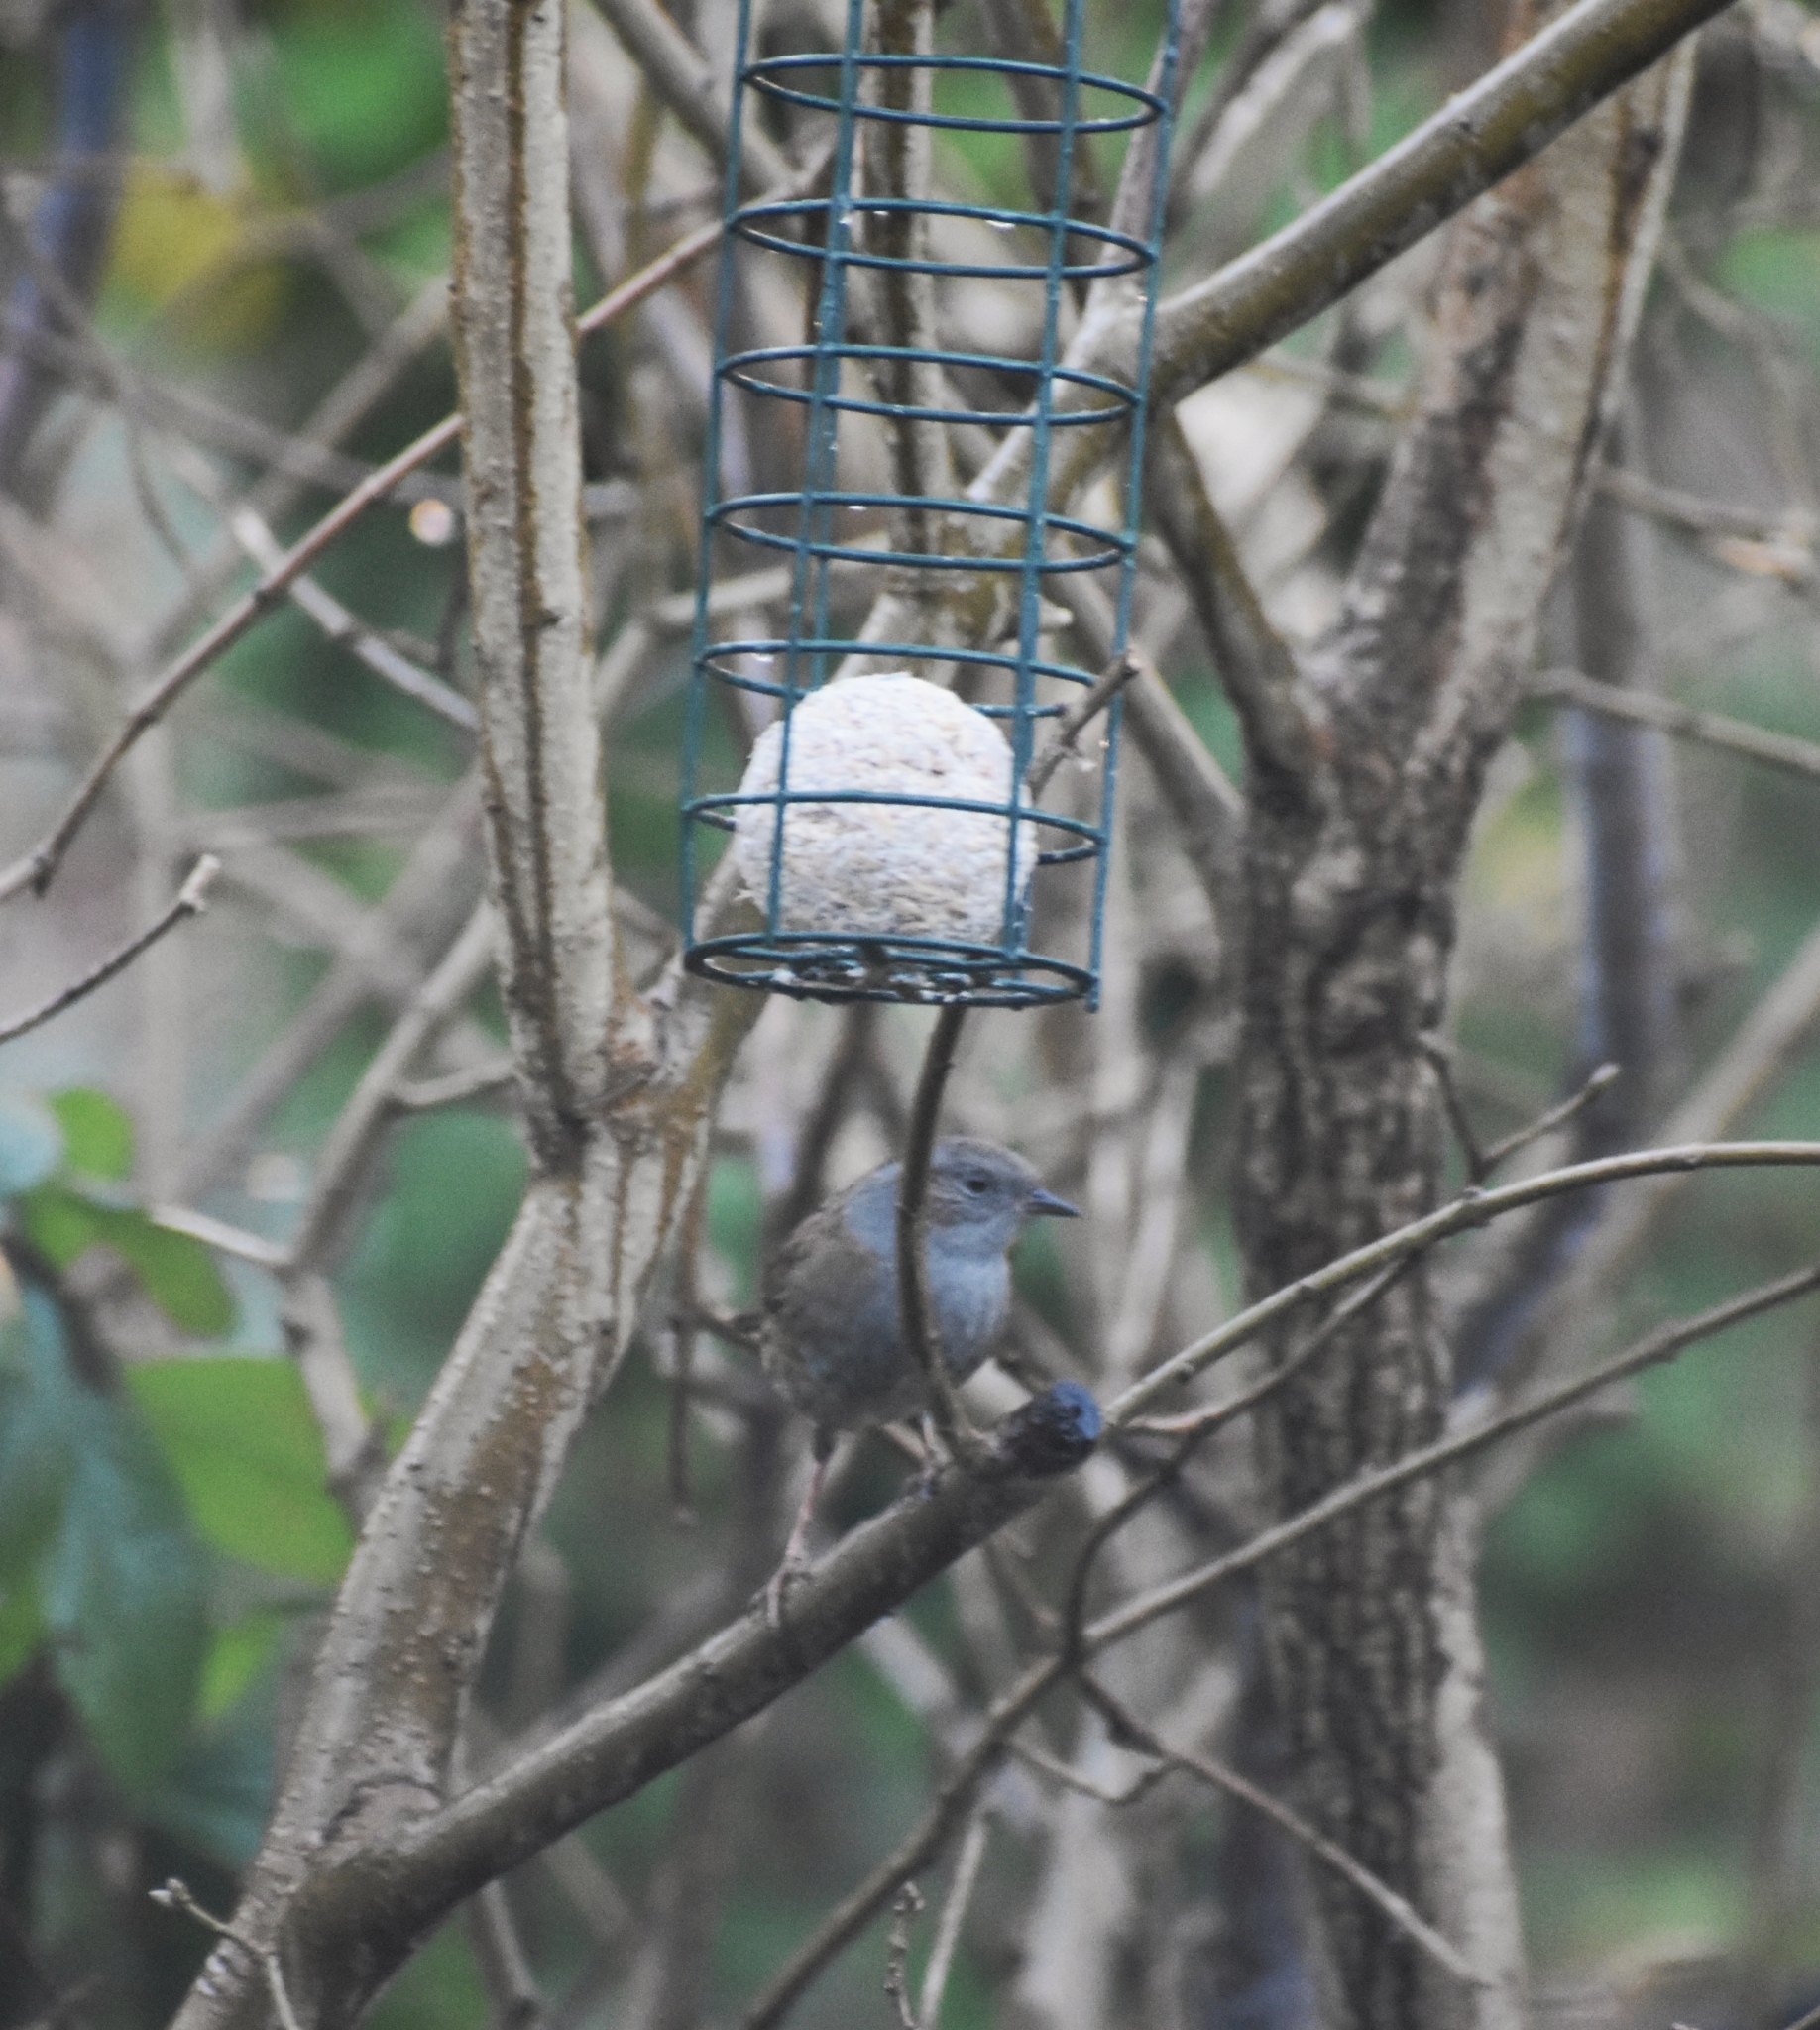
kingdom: Animalia
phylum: Chordata
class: Aves
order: Passeriformes
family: Prunellidae
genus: Prunella
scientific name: Prunella modularis
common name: Dunnock
